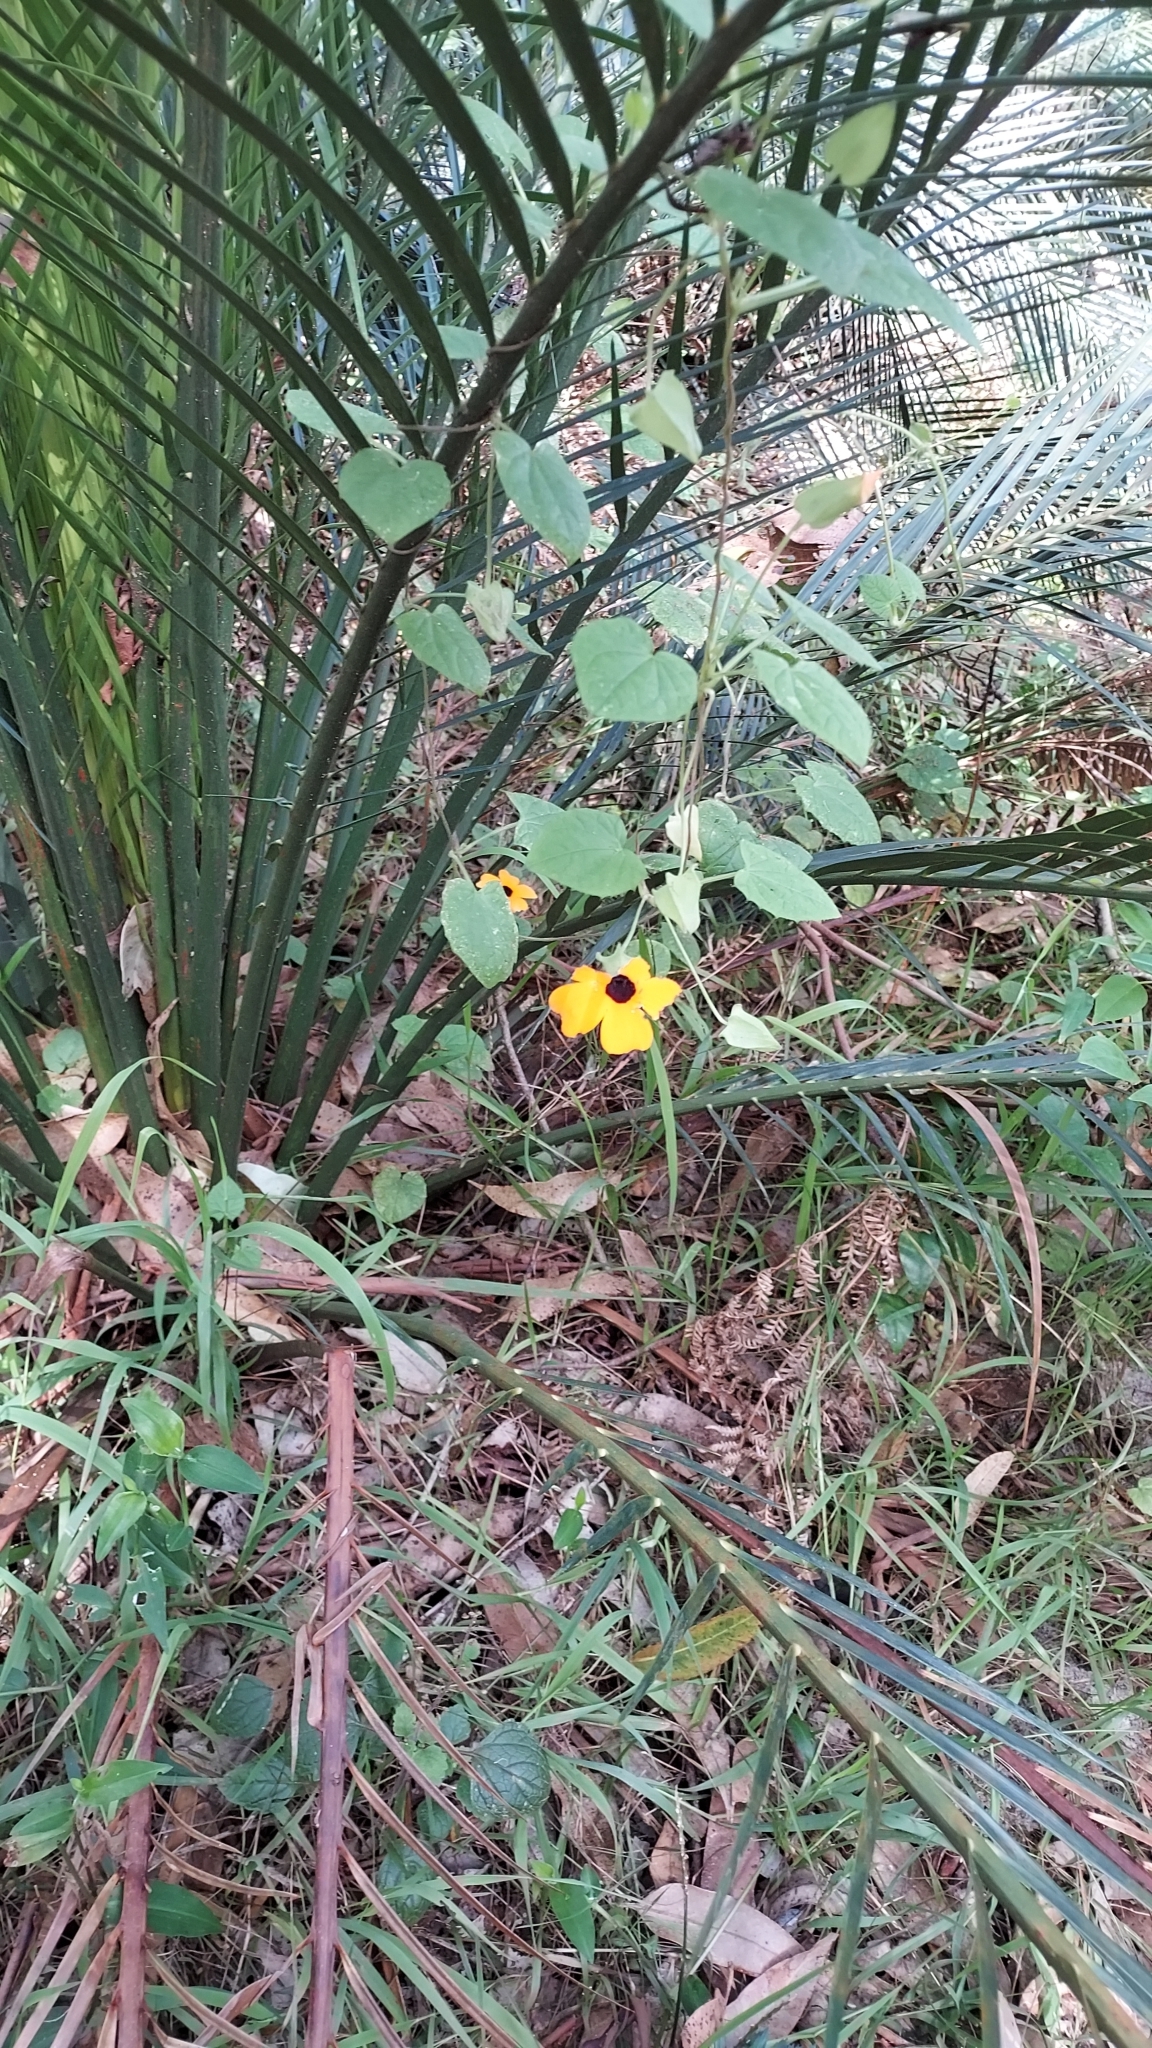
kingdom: Plantae
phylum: Tracheophyta
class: Magnoliopsida
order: Lamiales
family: Acanthaceae
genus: Thunbergia
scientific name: Thunbergia alata
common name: Blackeyed susan vine
